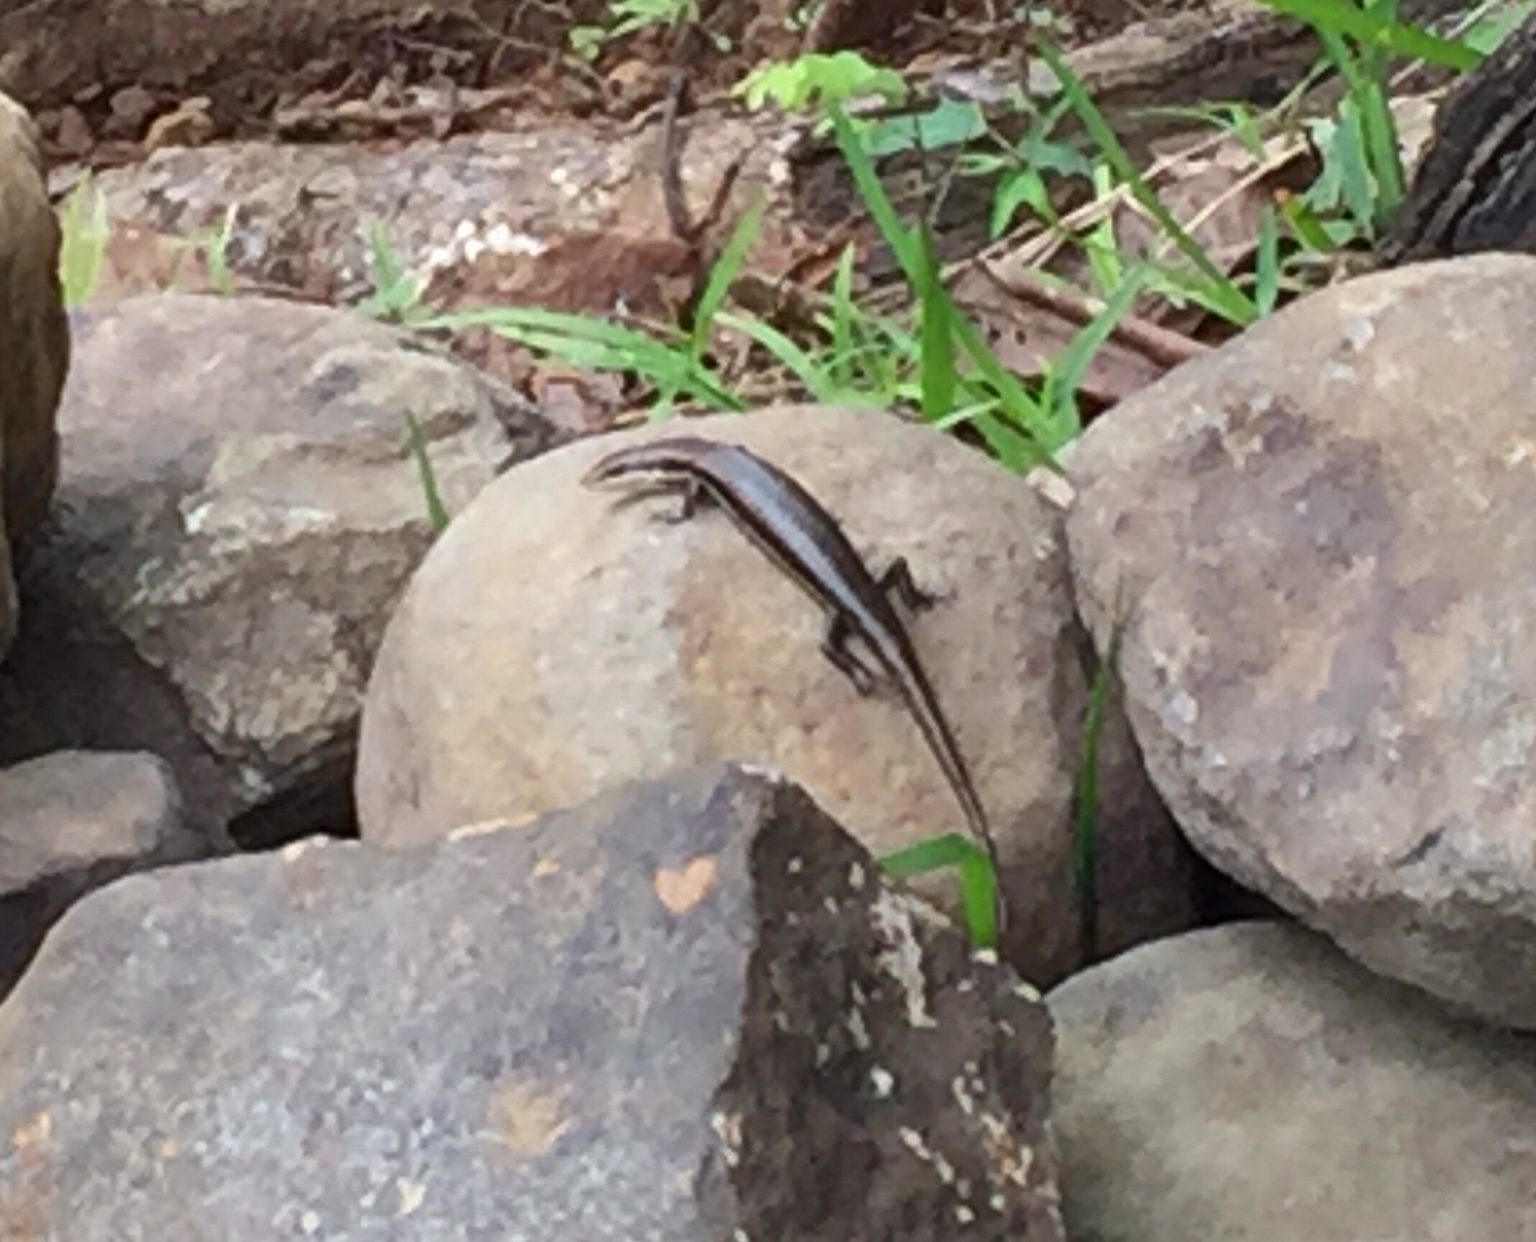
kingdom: Animalia
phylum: Chordata
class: Squamata
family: Scincidae
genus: Marisora
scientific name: Marisora brachypoda
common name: Western middle america skink
